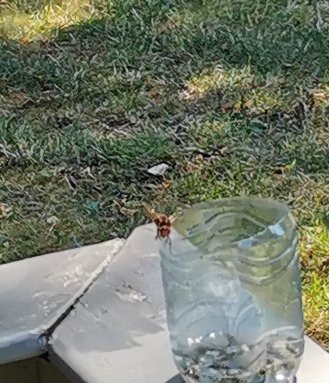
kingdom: Animalia
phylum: Arthropoda
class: Insecta
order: Hymenoptera
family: Vespidae
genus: Vespa
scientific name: Vespa crabro
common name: Hornet
